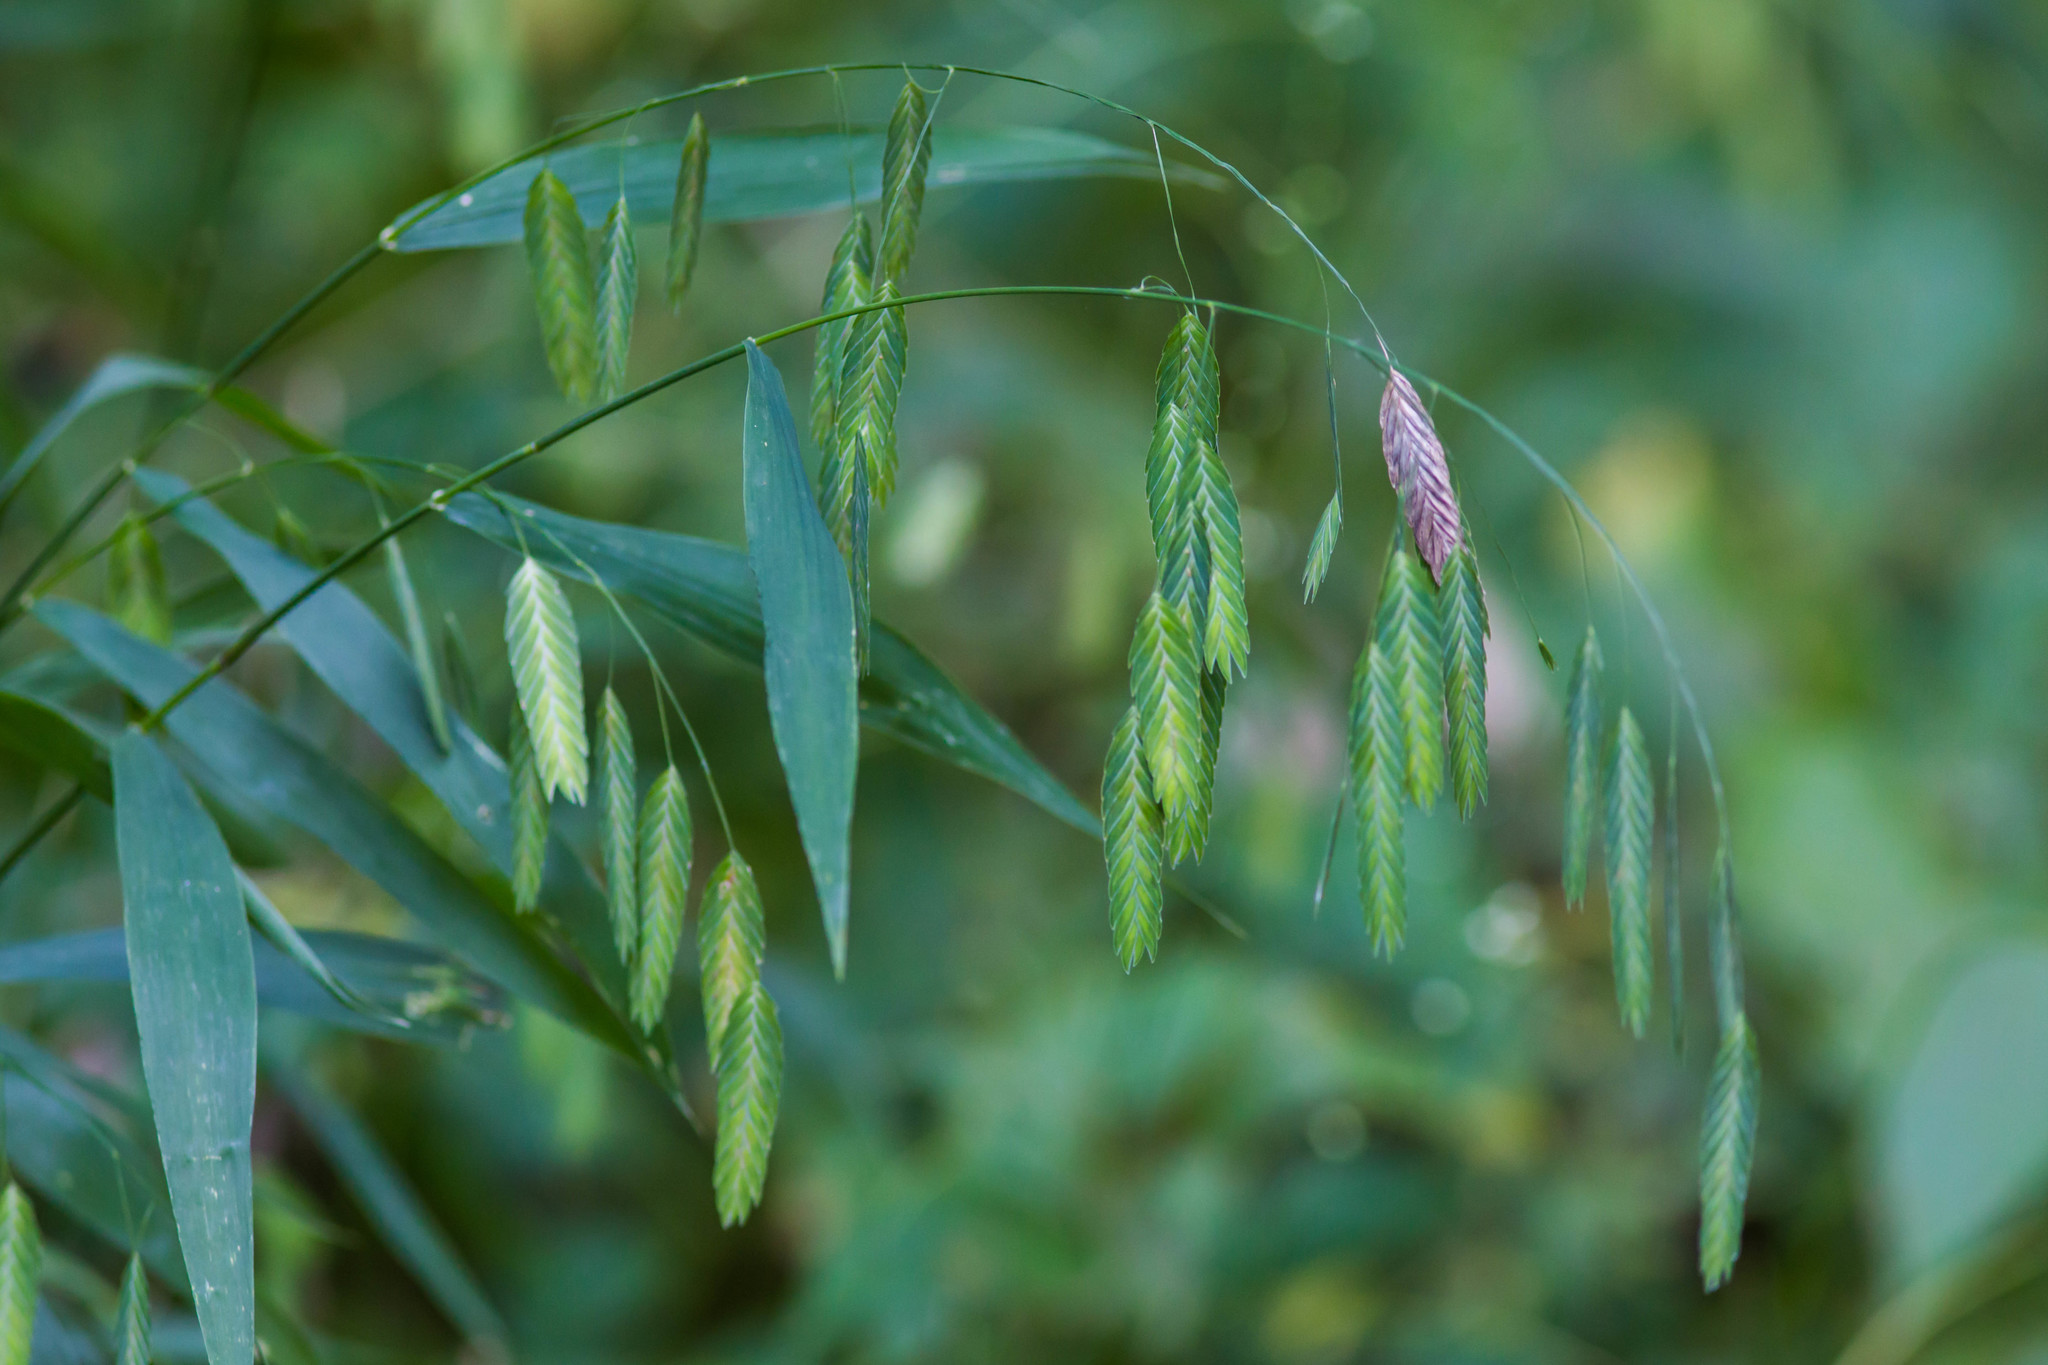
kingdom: Plantae
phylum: Tracheophyta
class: Liliopsida
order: Poales
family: Poaceae
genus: Chasmanthium
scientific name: Chasmanthium latifolium
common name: Broad-leaved chasmanthium
